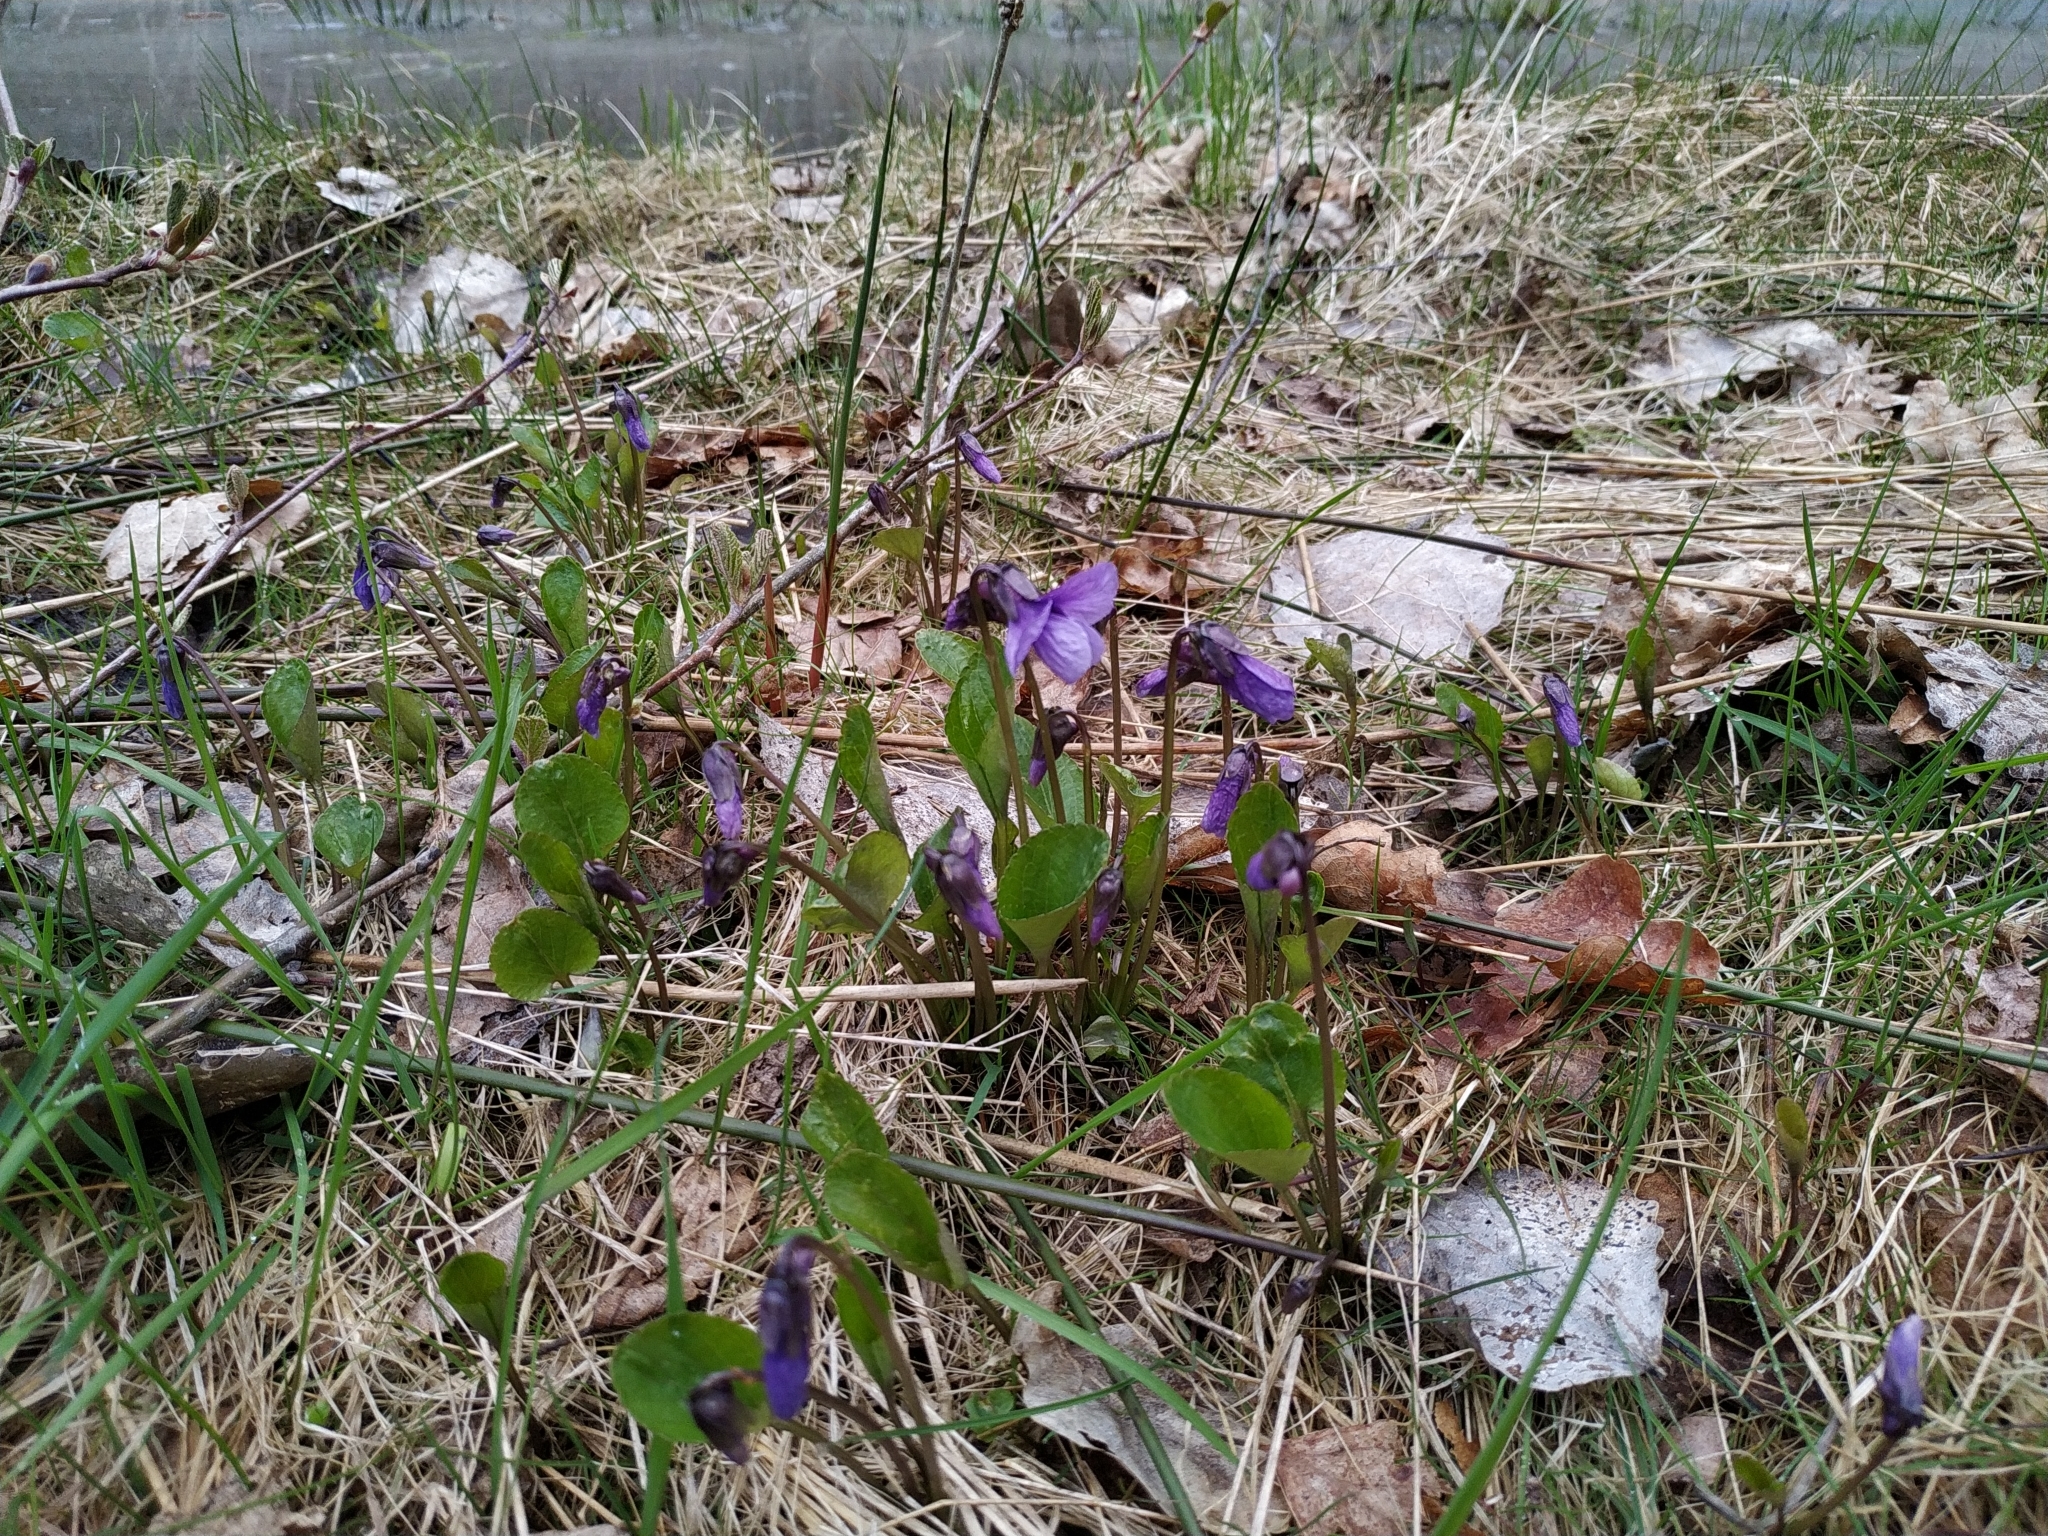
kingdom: Plantae
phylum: Tracheophyta
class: Magnoliopsida
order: Malpighiales
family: Violaceae
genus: Viola
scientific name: Viola uliginosa
